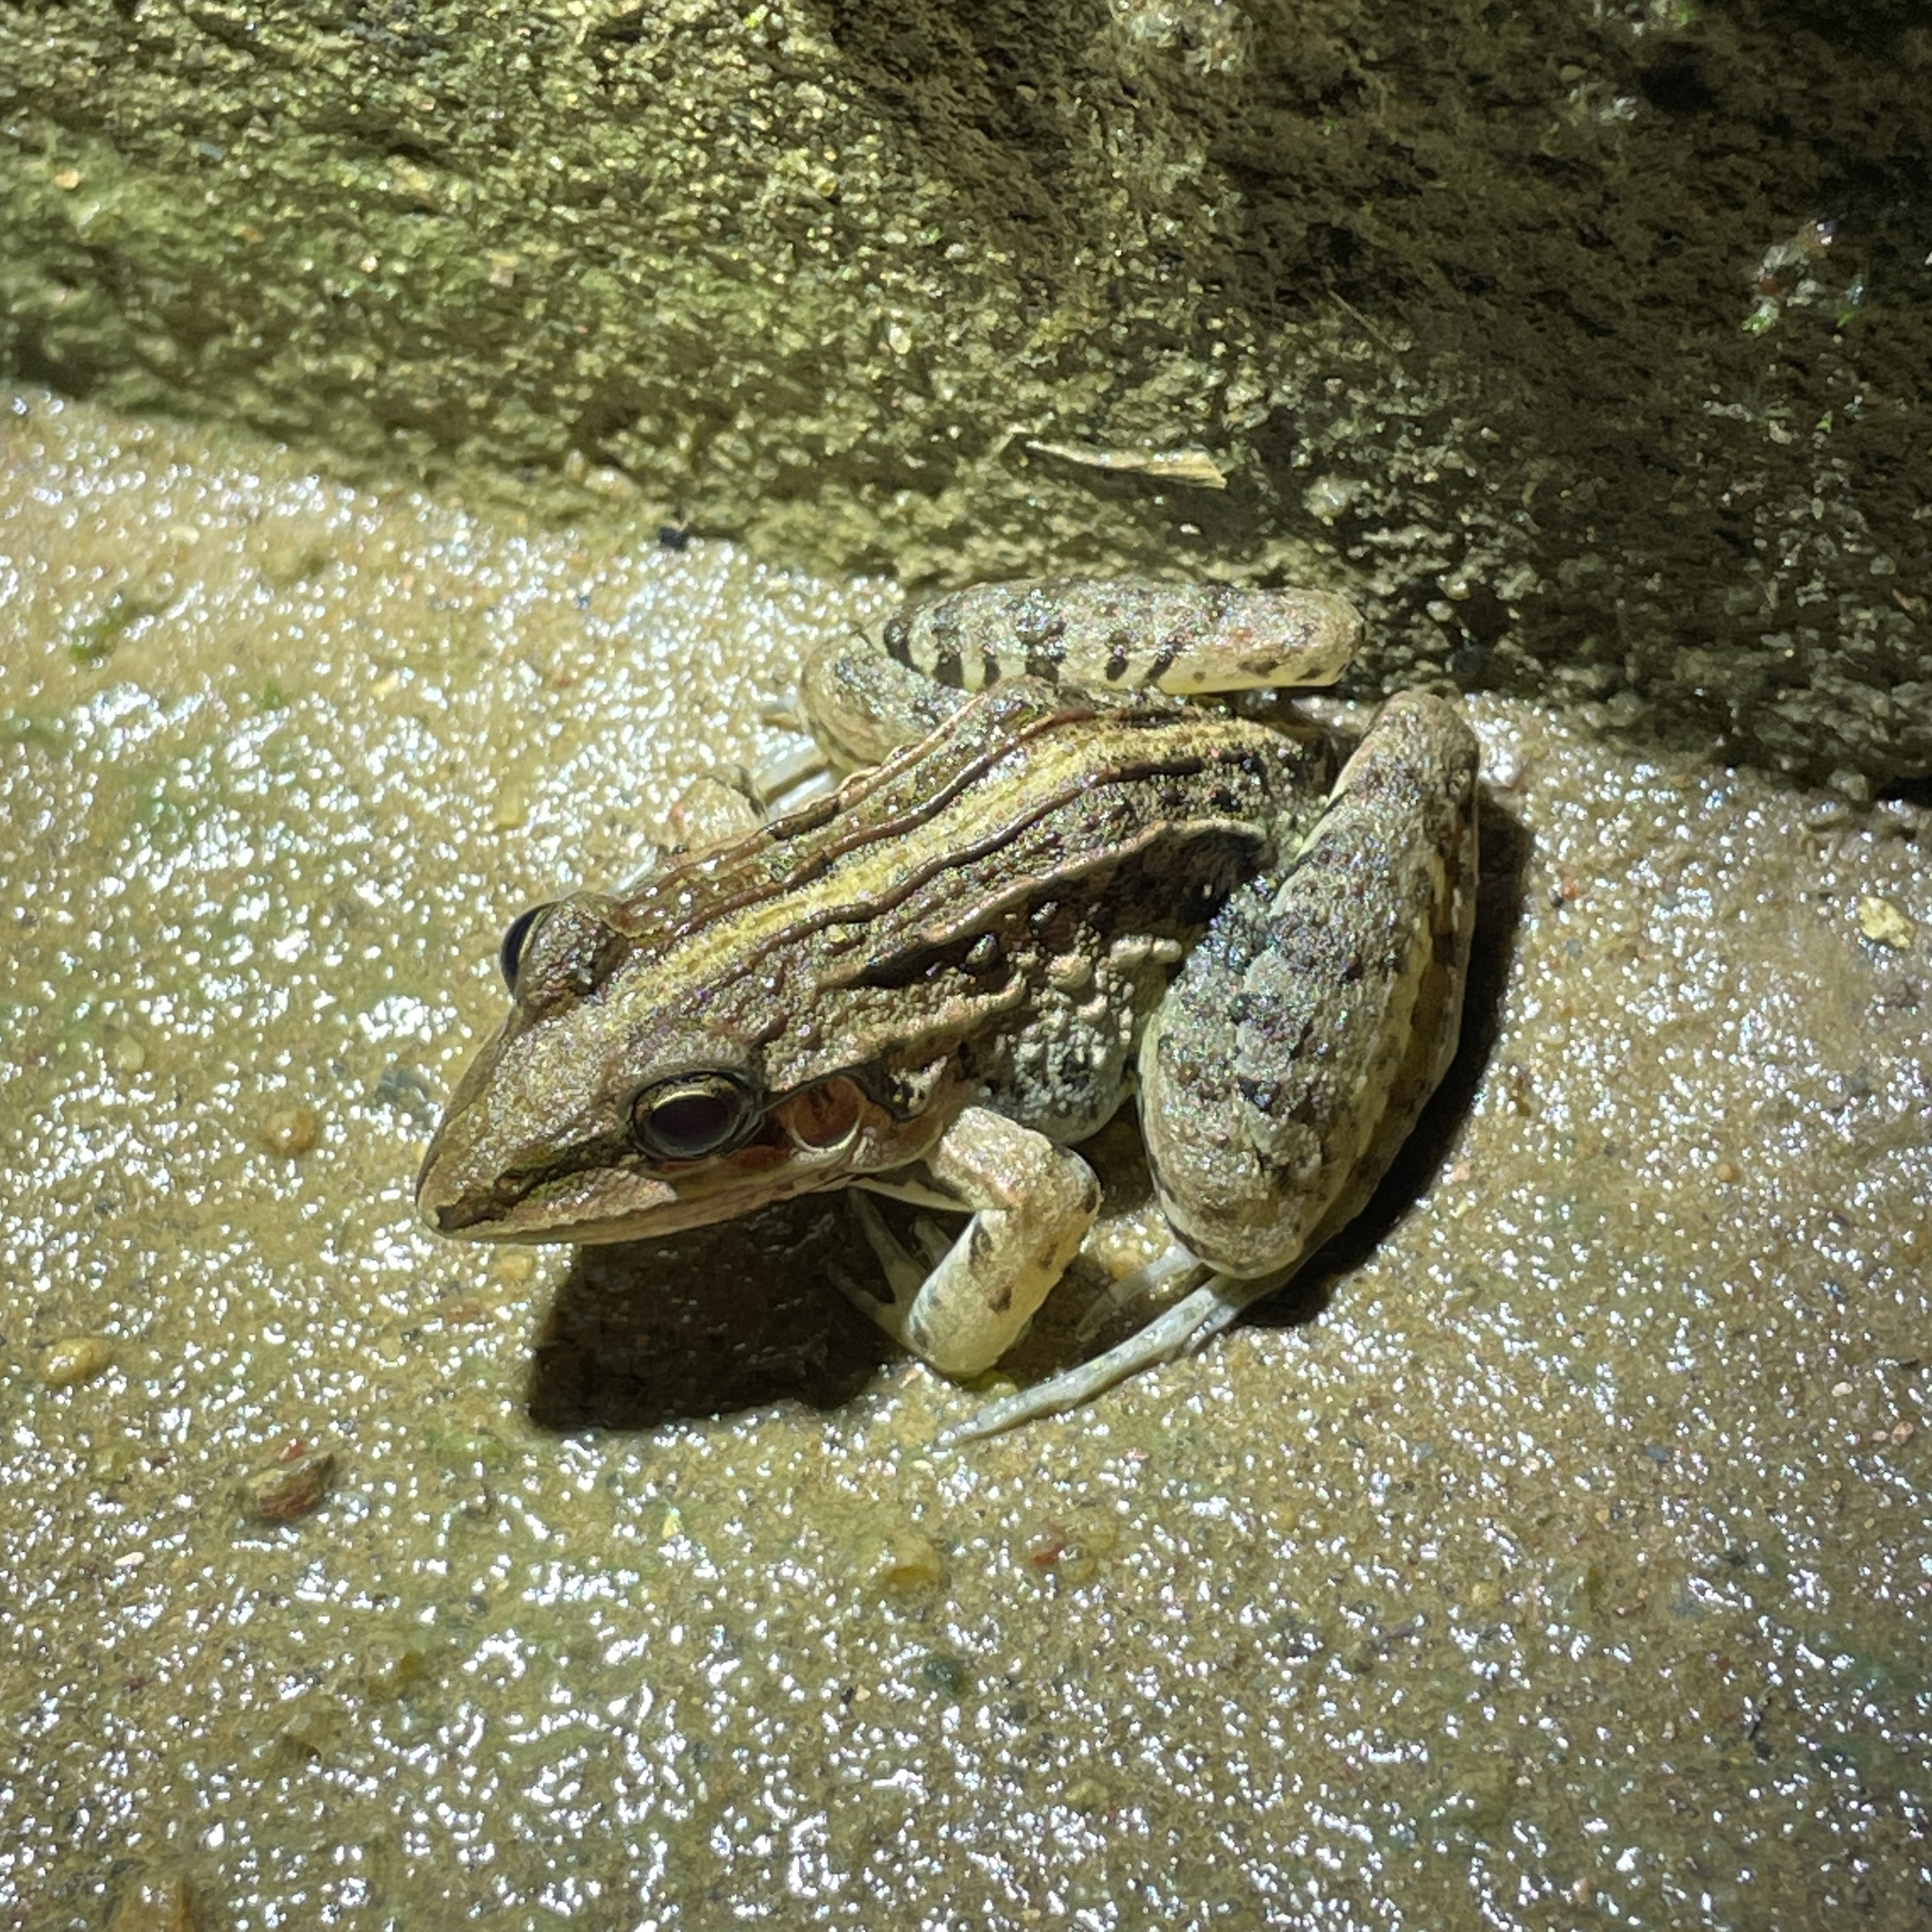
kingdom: Animalia
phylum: Chordata
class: Amphibia
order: Anura
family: Leptodactylidae
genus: Leptodactylus
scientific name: Leptodactylus fuscus
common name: Rufous frog
